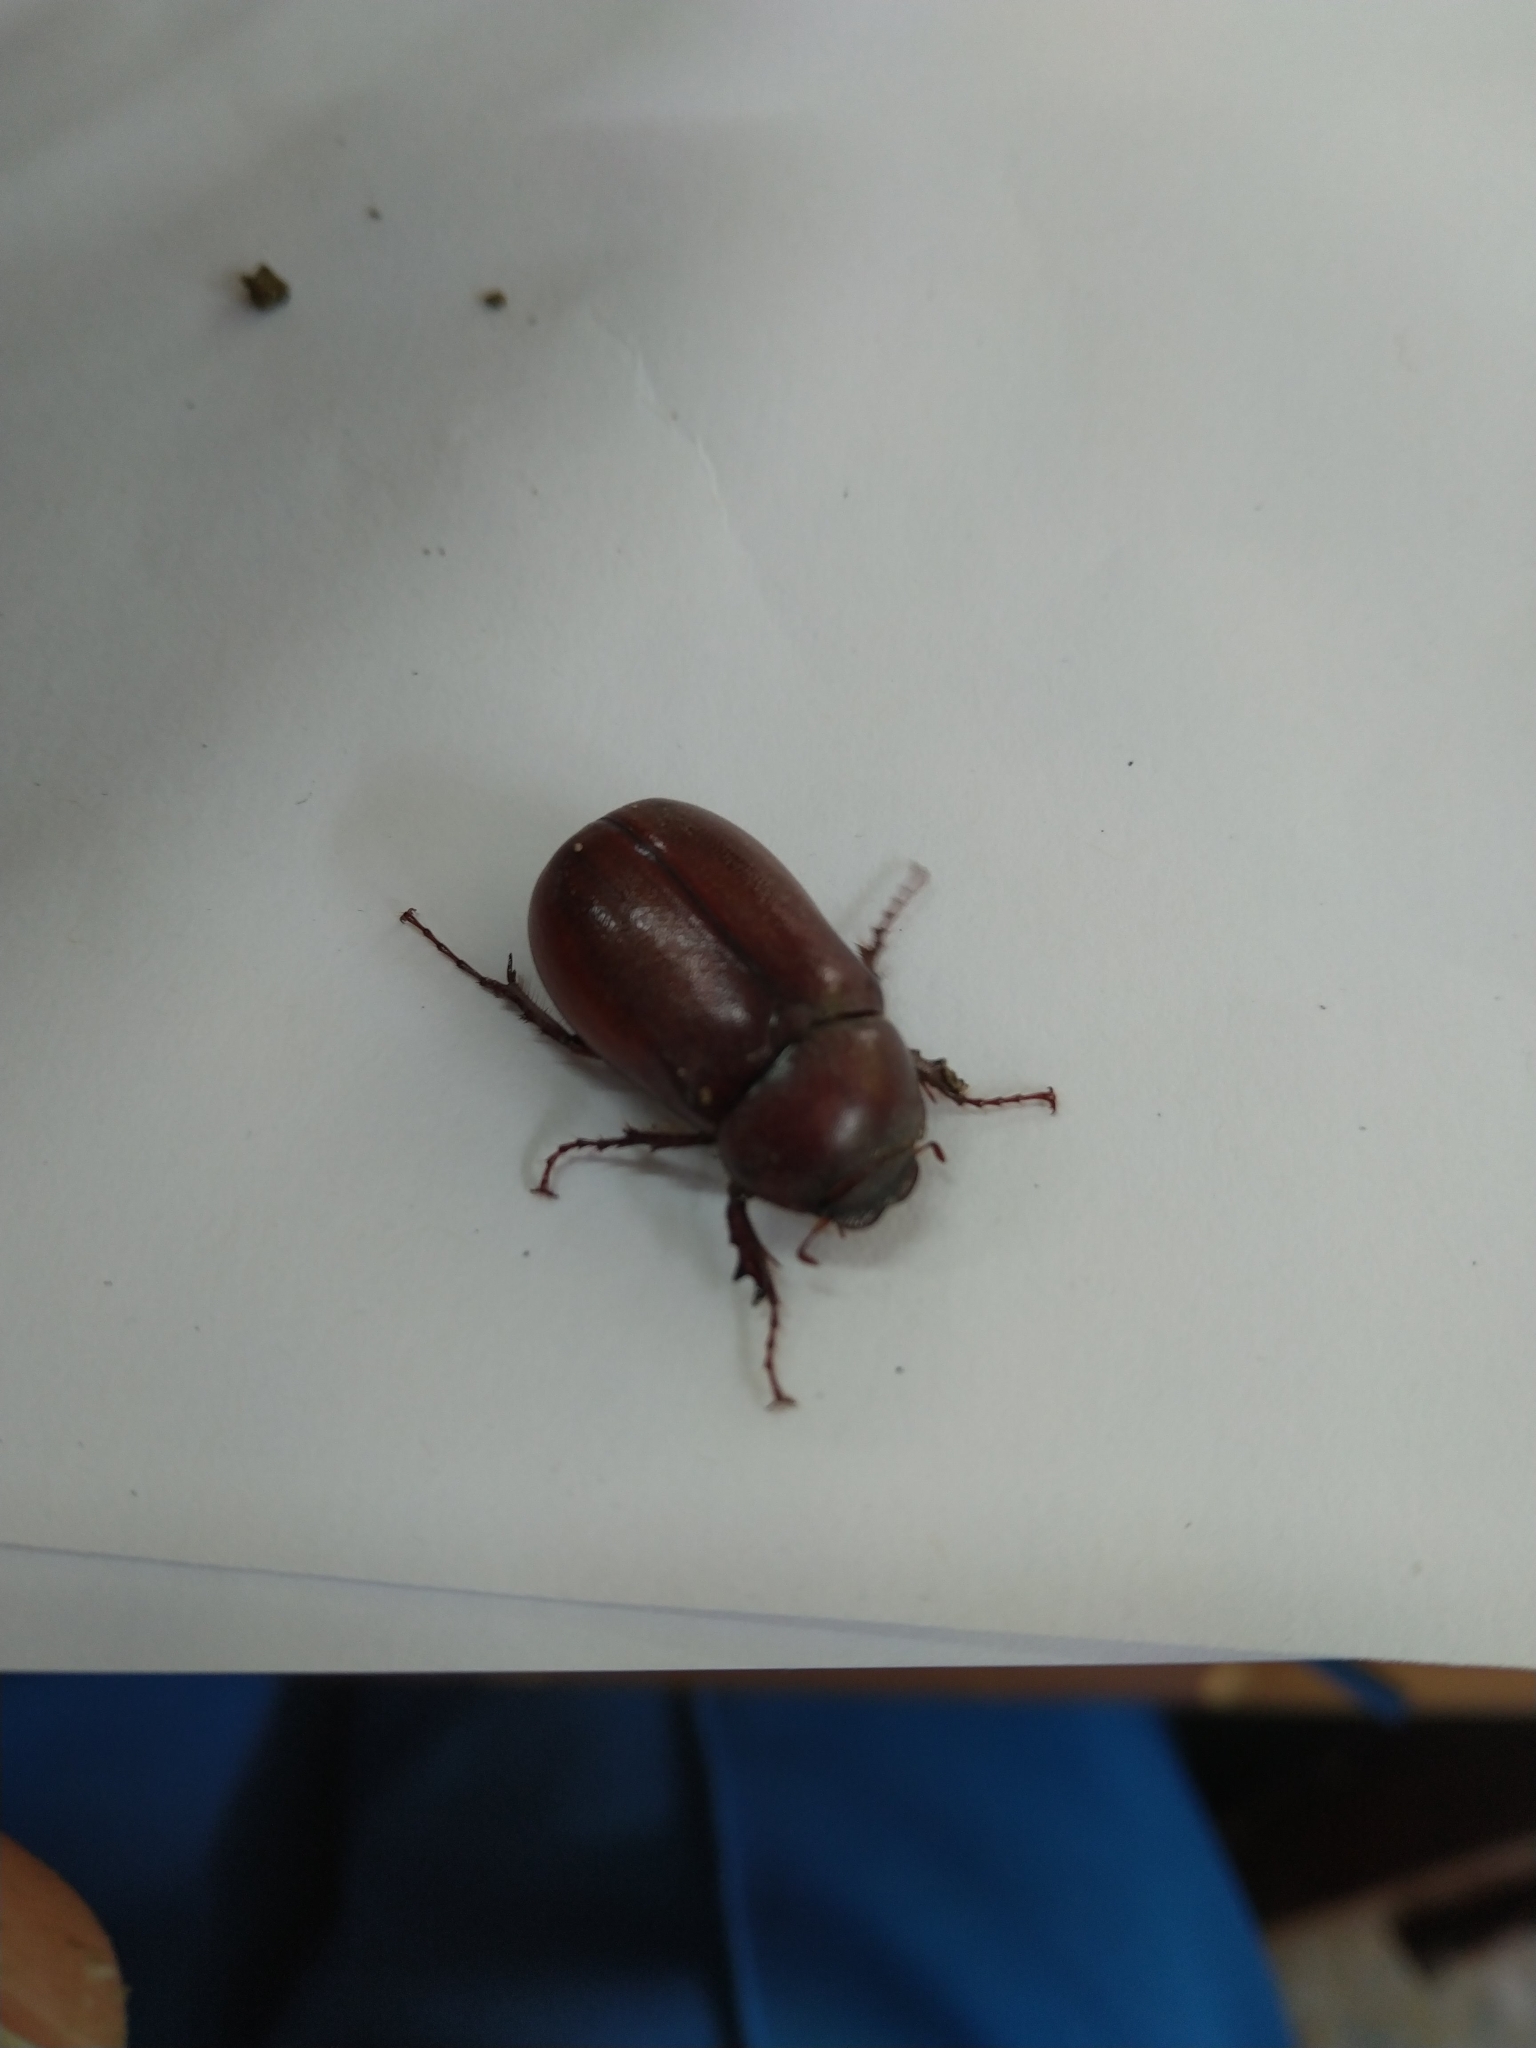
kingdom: Animalia
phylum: Arthropoda
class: Insecta
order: Coleoptera
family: Scarabaeidae
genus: Miridiba
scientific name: Miridiba kuraruana
